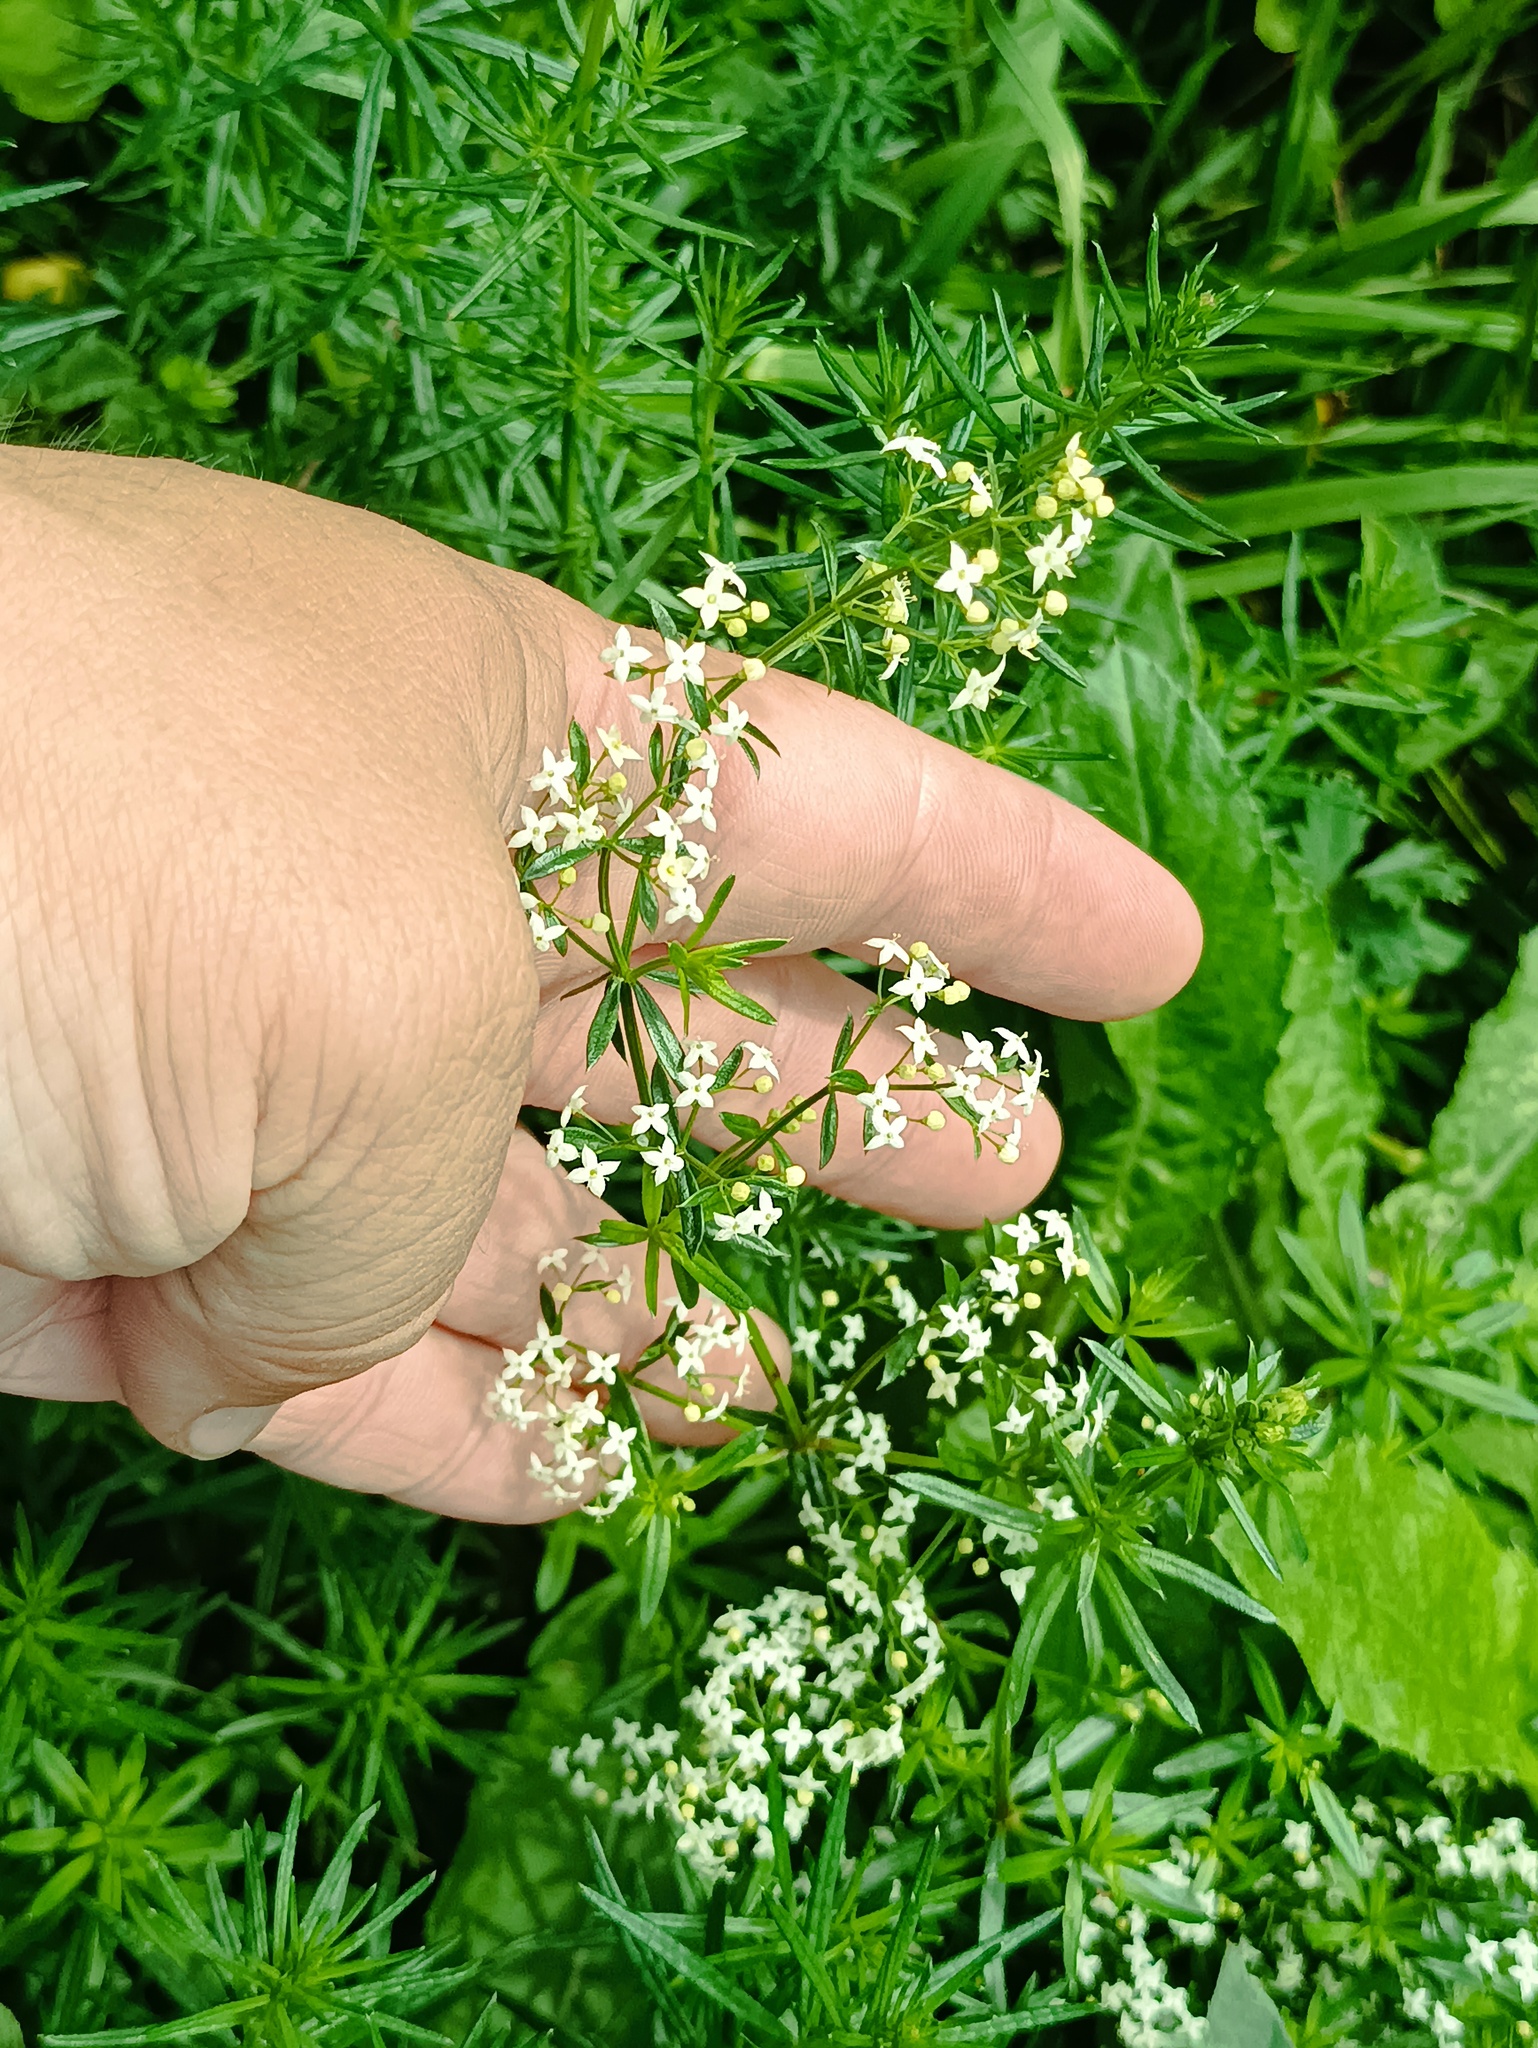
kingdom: Plantae
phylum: Tracheophyta
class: Magnoliopsida
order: Gentianales
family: Rubiaceae
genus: Galium
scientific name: Galium mollugo
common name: Hedge bedstraw
